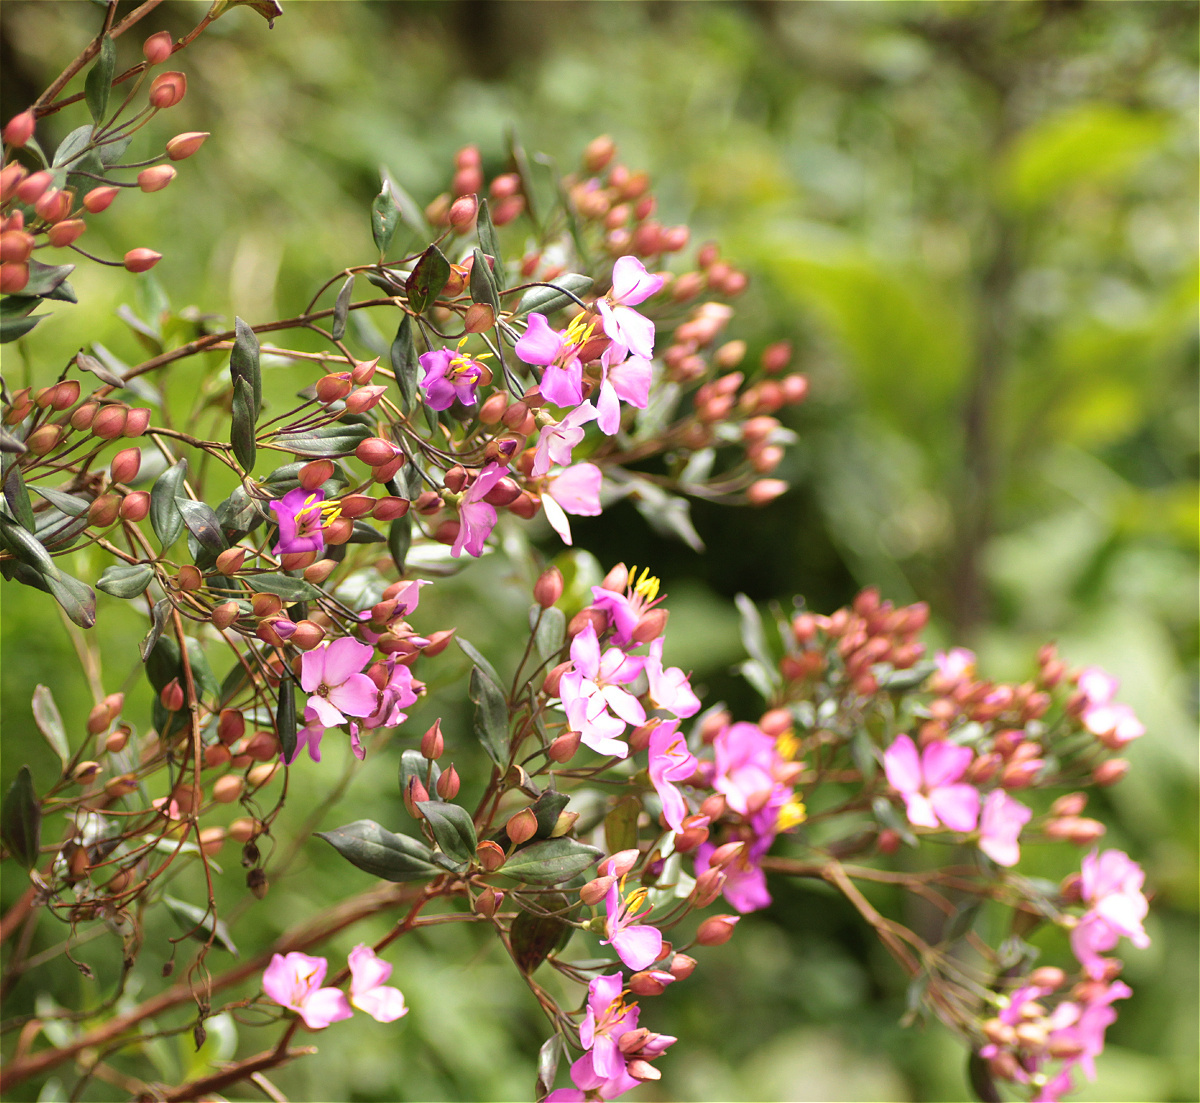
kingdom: Plantae
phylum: Tracheophyta
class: Magnoliopsida
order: Myrtales
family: Melastomataceae
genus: Bucquetia
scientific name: Bucquetia glutinosa
